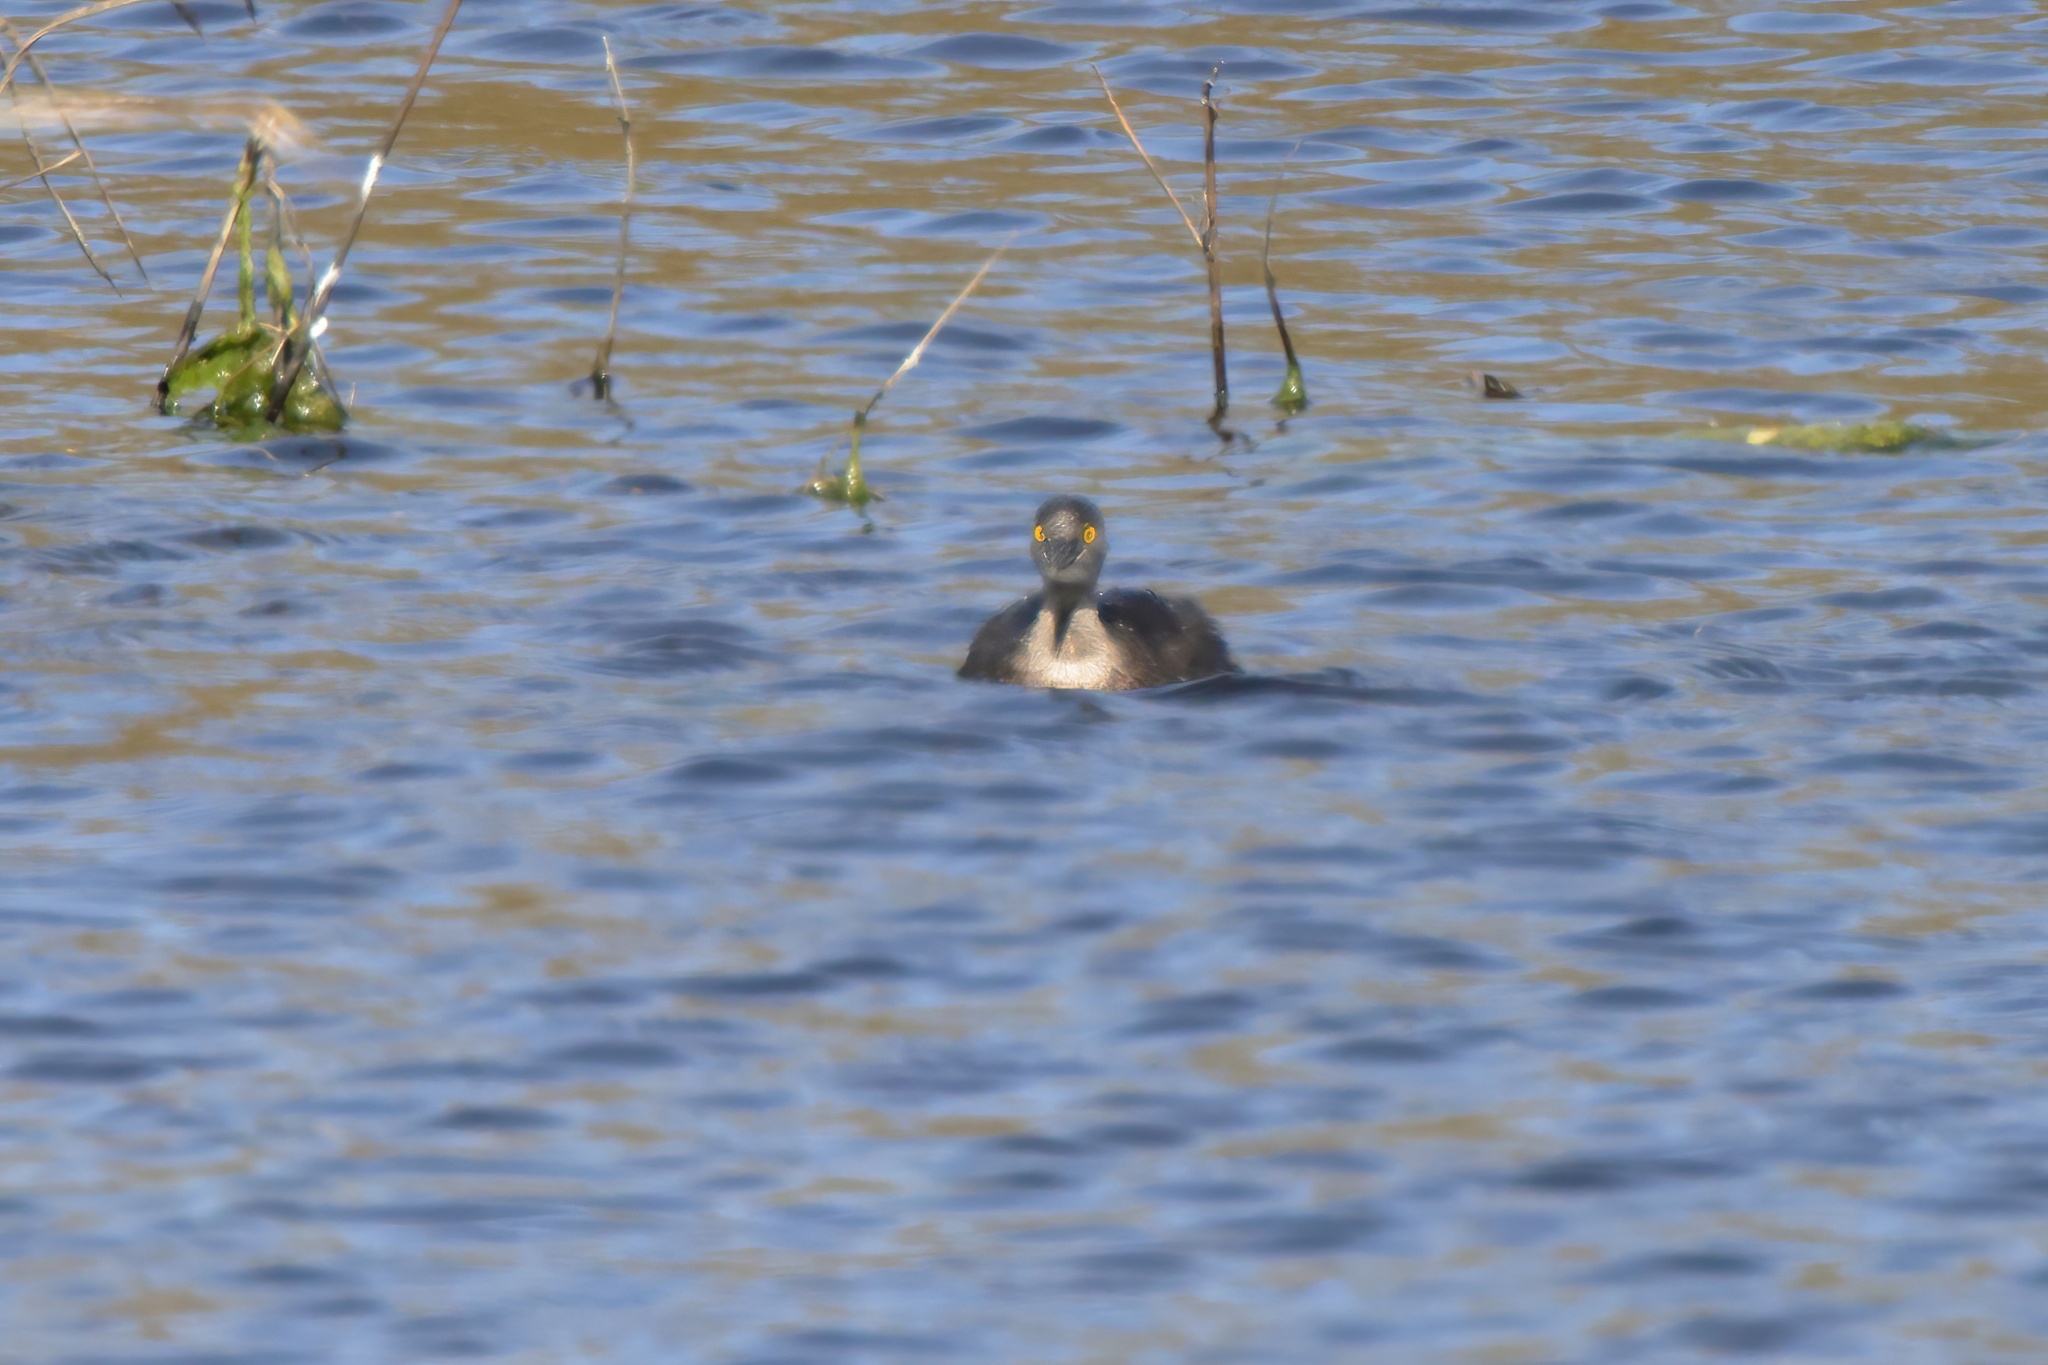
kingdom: Animalia
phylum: Chordata
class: Aves
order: Podicipediformes
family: Podicipedidae
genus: Tachybaptus
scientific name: Tachybaptus dominicus
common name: Least grebe
